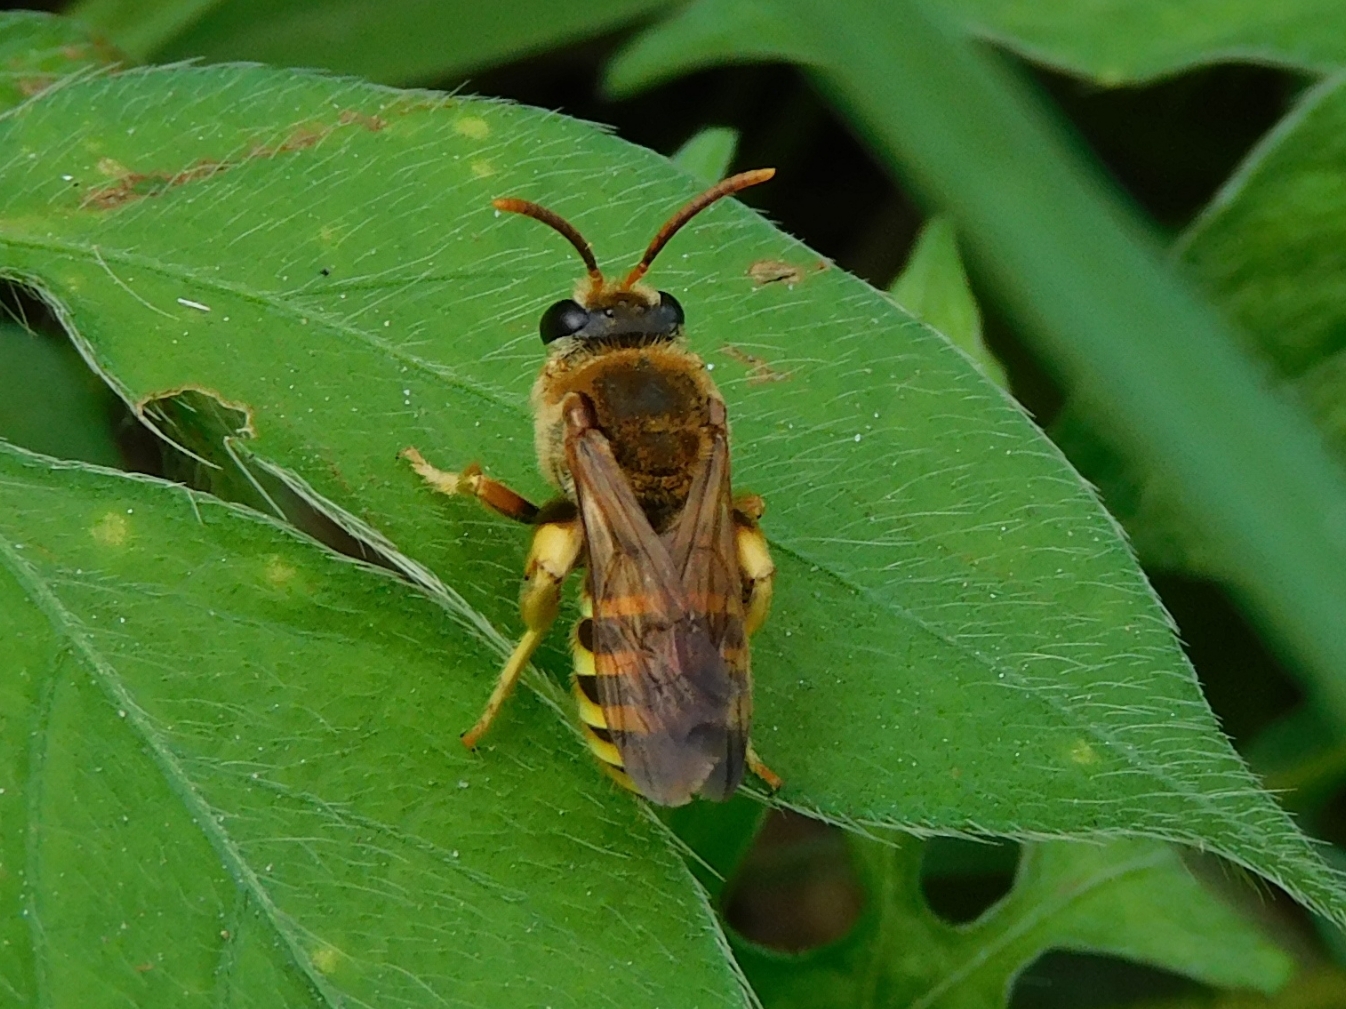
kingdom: Animalia
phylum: Arthropoda
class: Insecta
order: Hymenoptera
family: Halictidae
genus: Nomia
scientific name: Nomia crassipes
